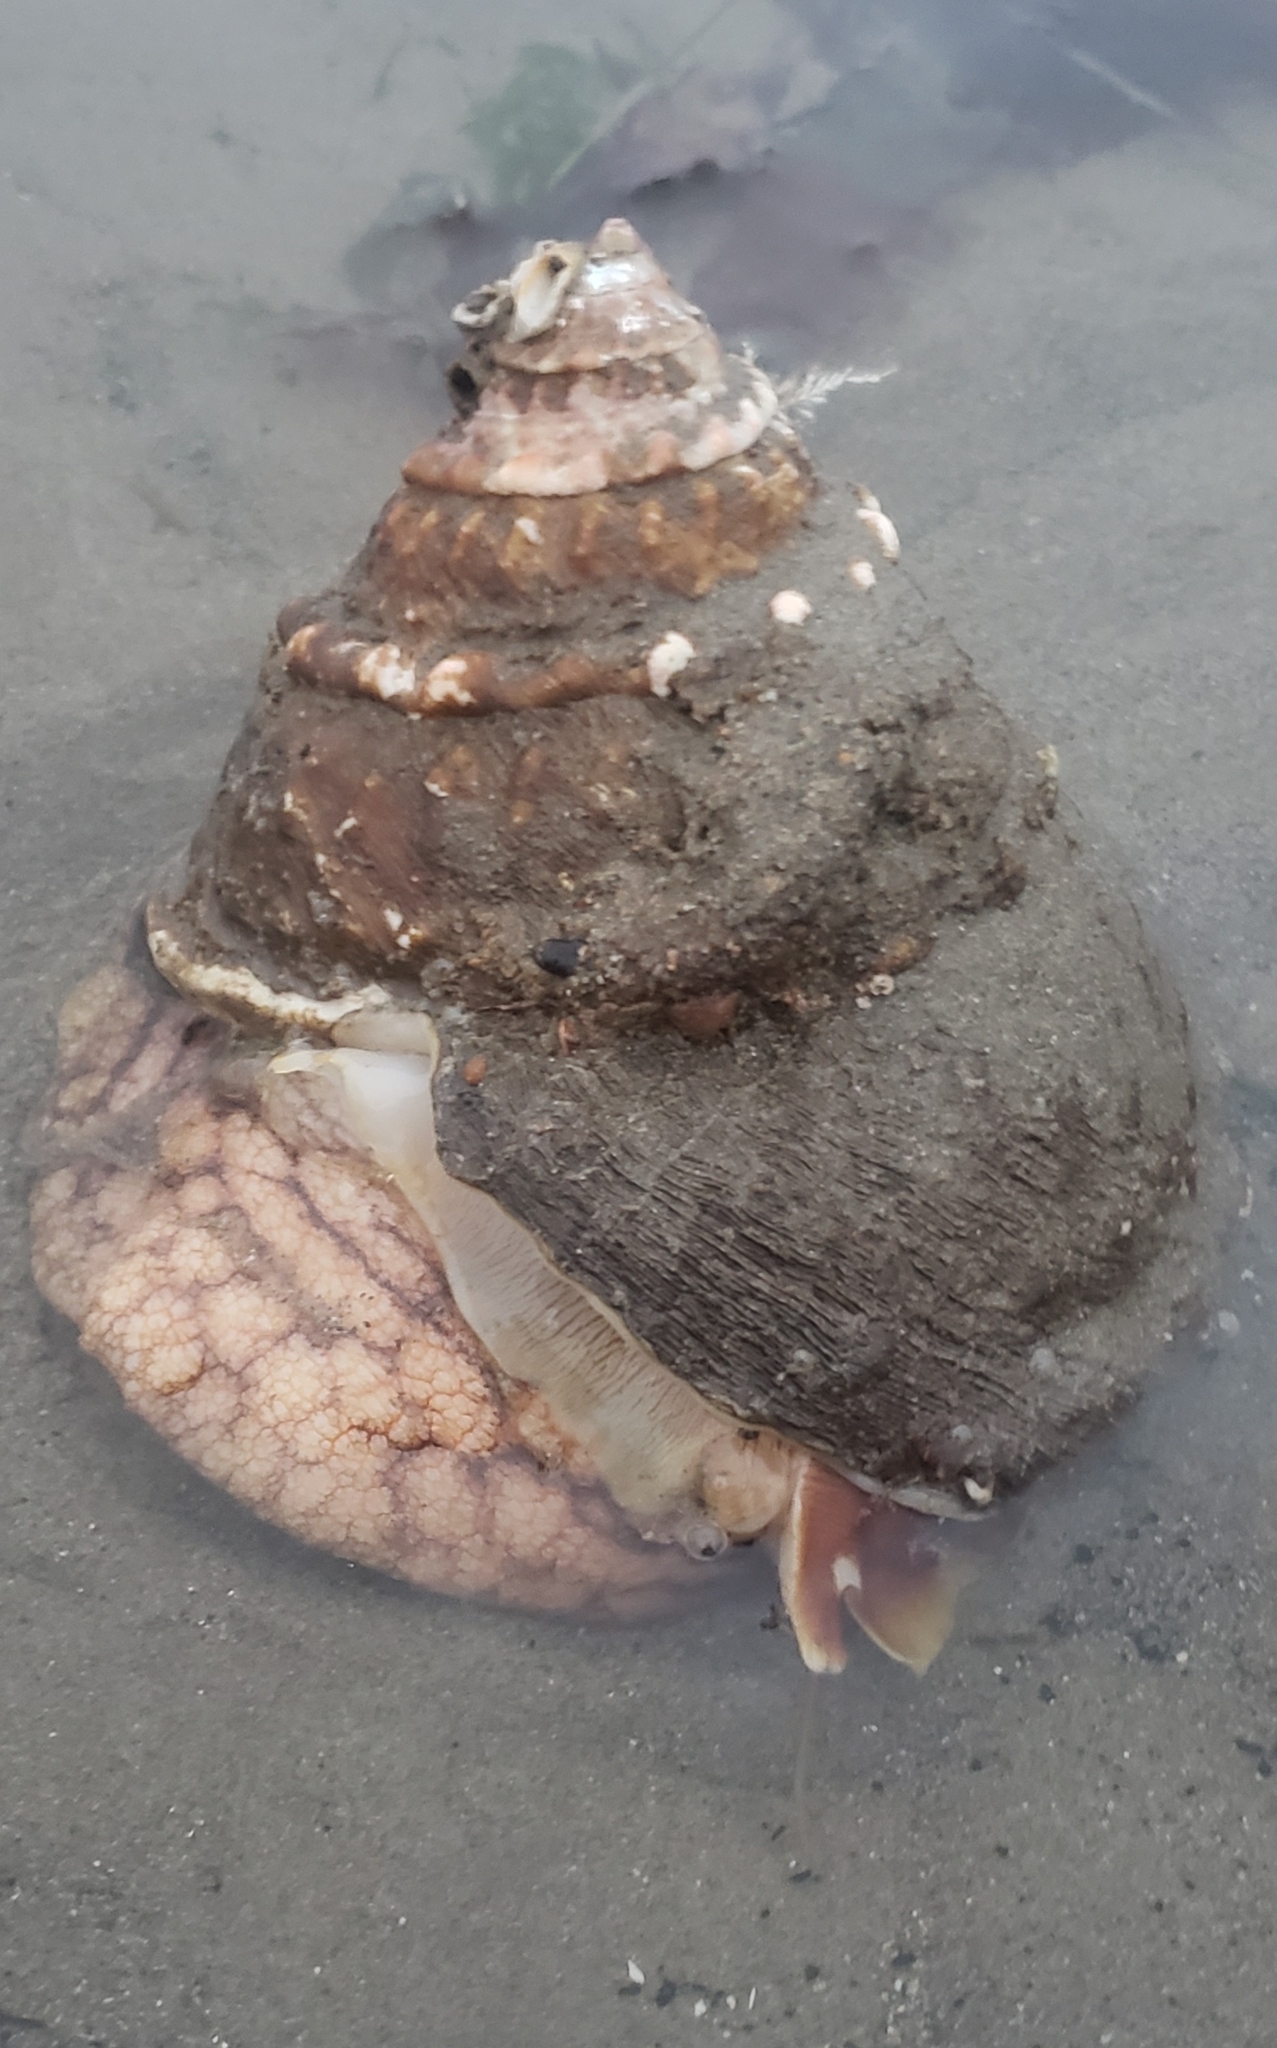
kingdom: Animalia
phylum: Mollusca
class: Gastropoda
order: Trochida
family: Turbinidae
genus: Megastraea
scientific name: Megastraea undosa
